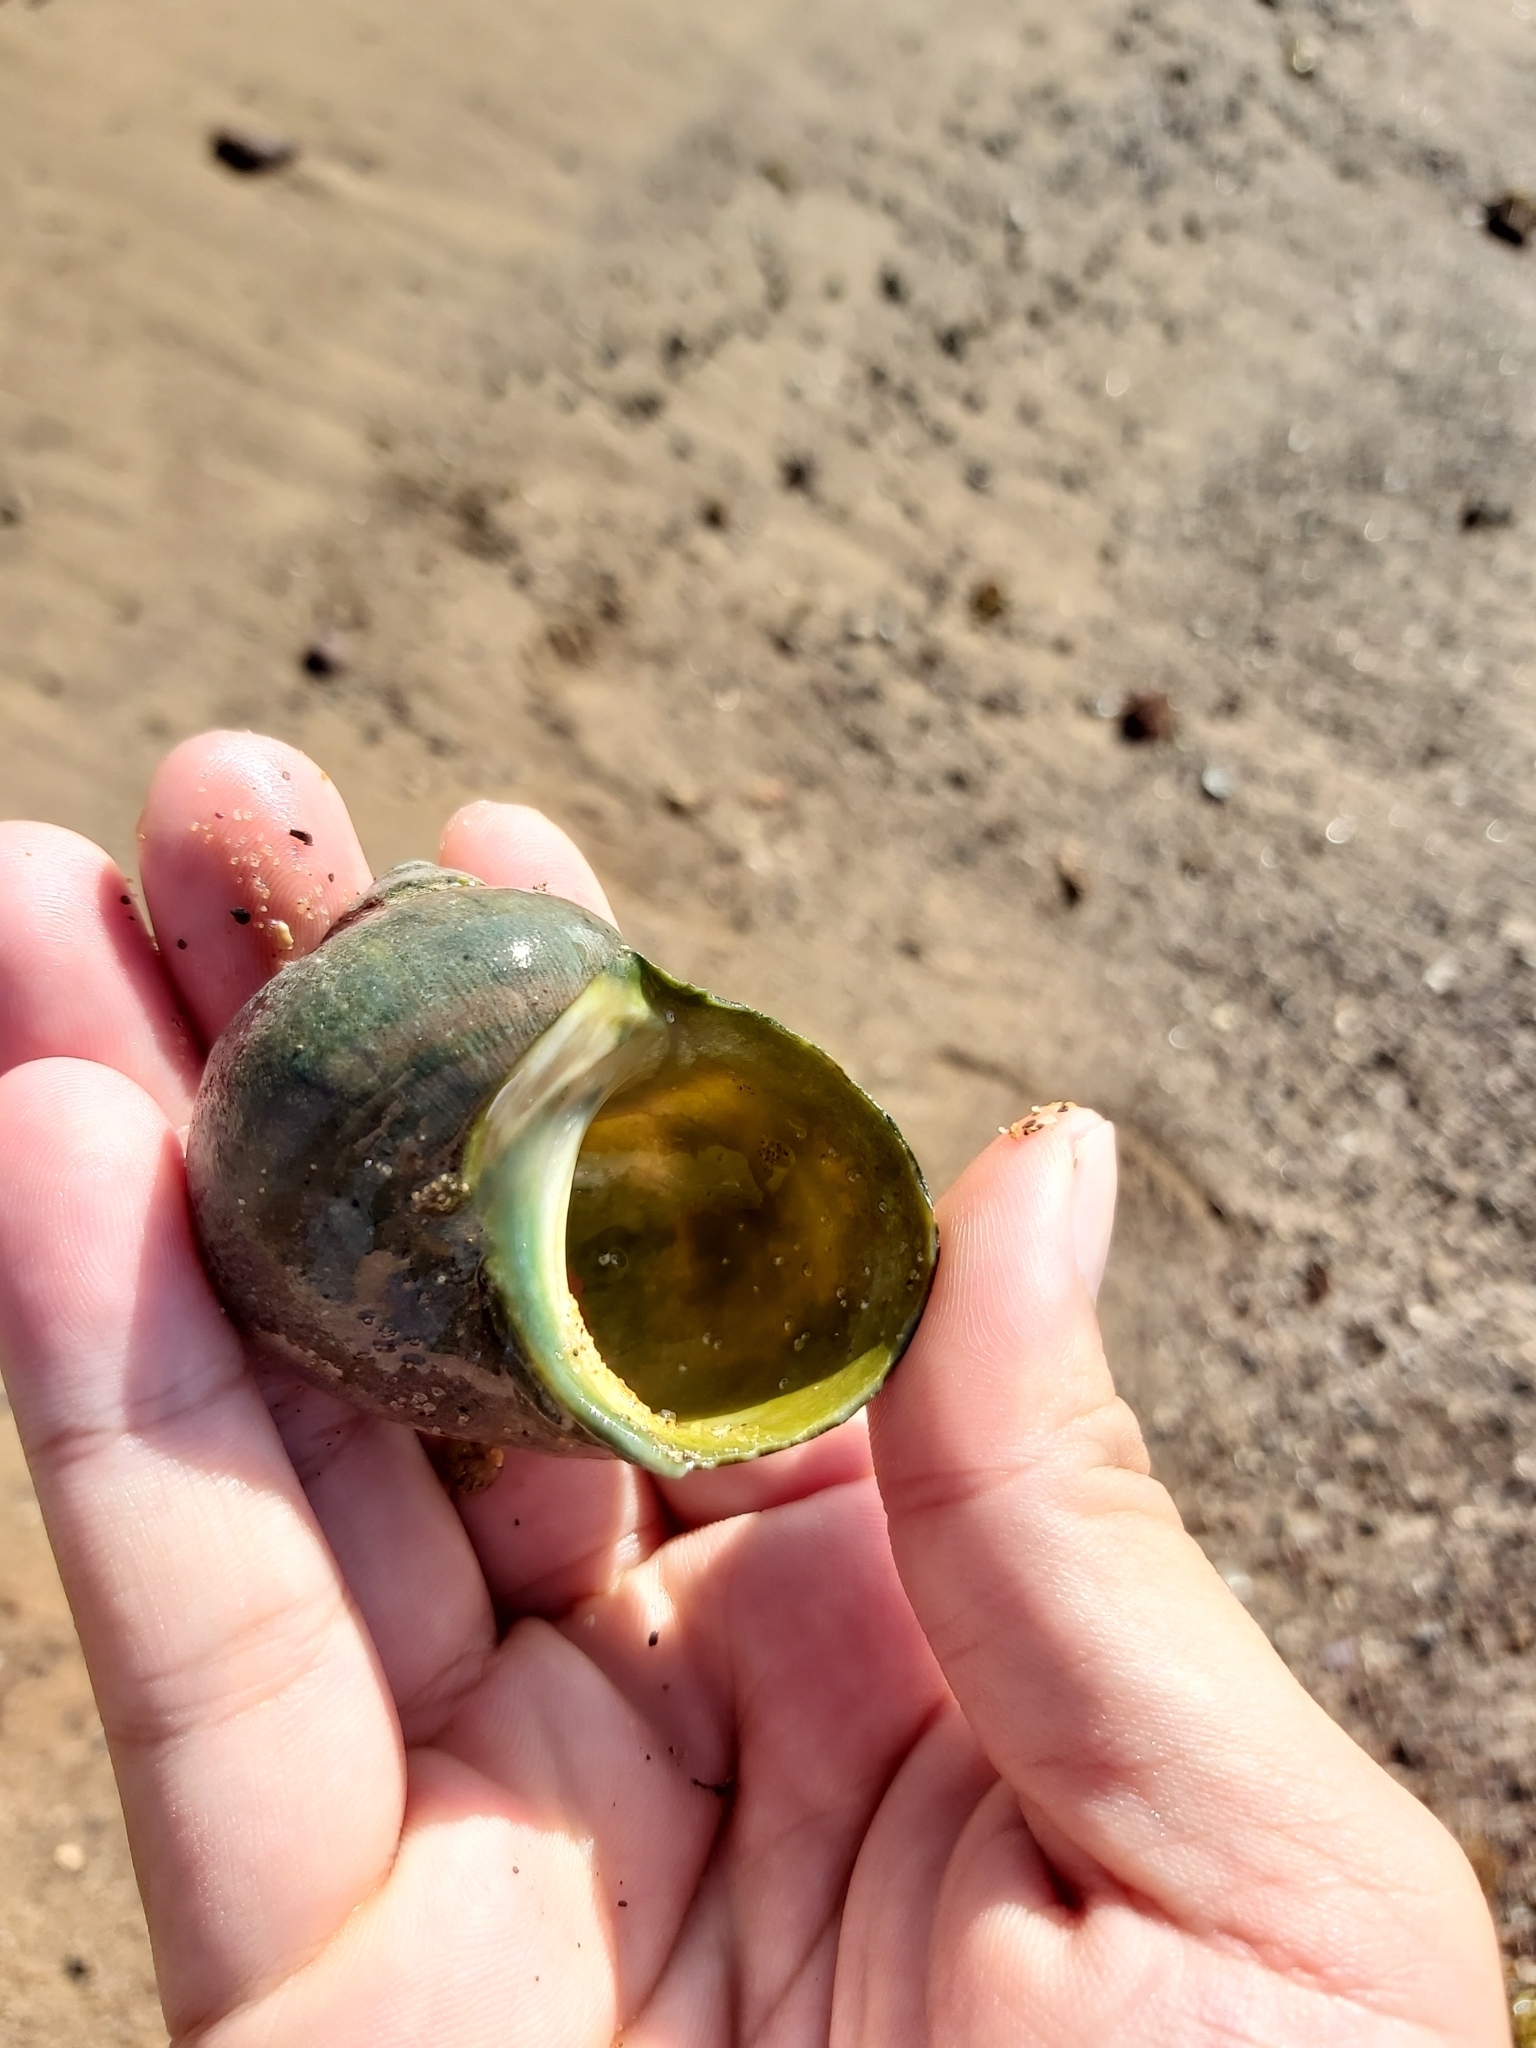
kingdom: Animalia
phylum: Mollusca
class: Gastropoda
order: Trochida
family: Turbinidae
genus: Turbo
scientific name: Turbo militaris
